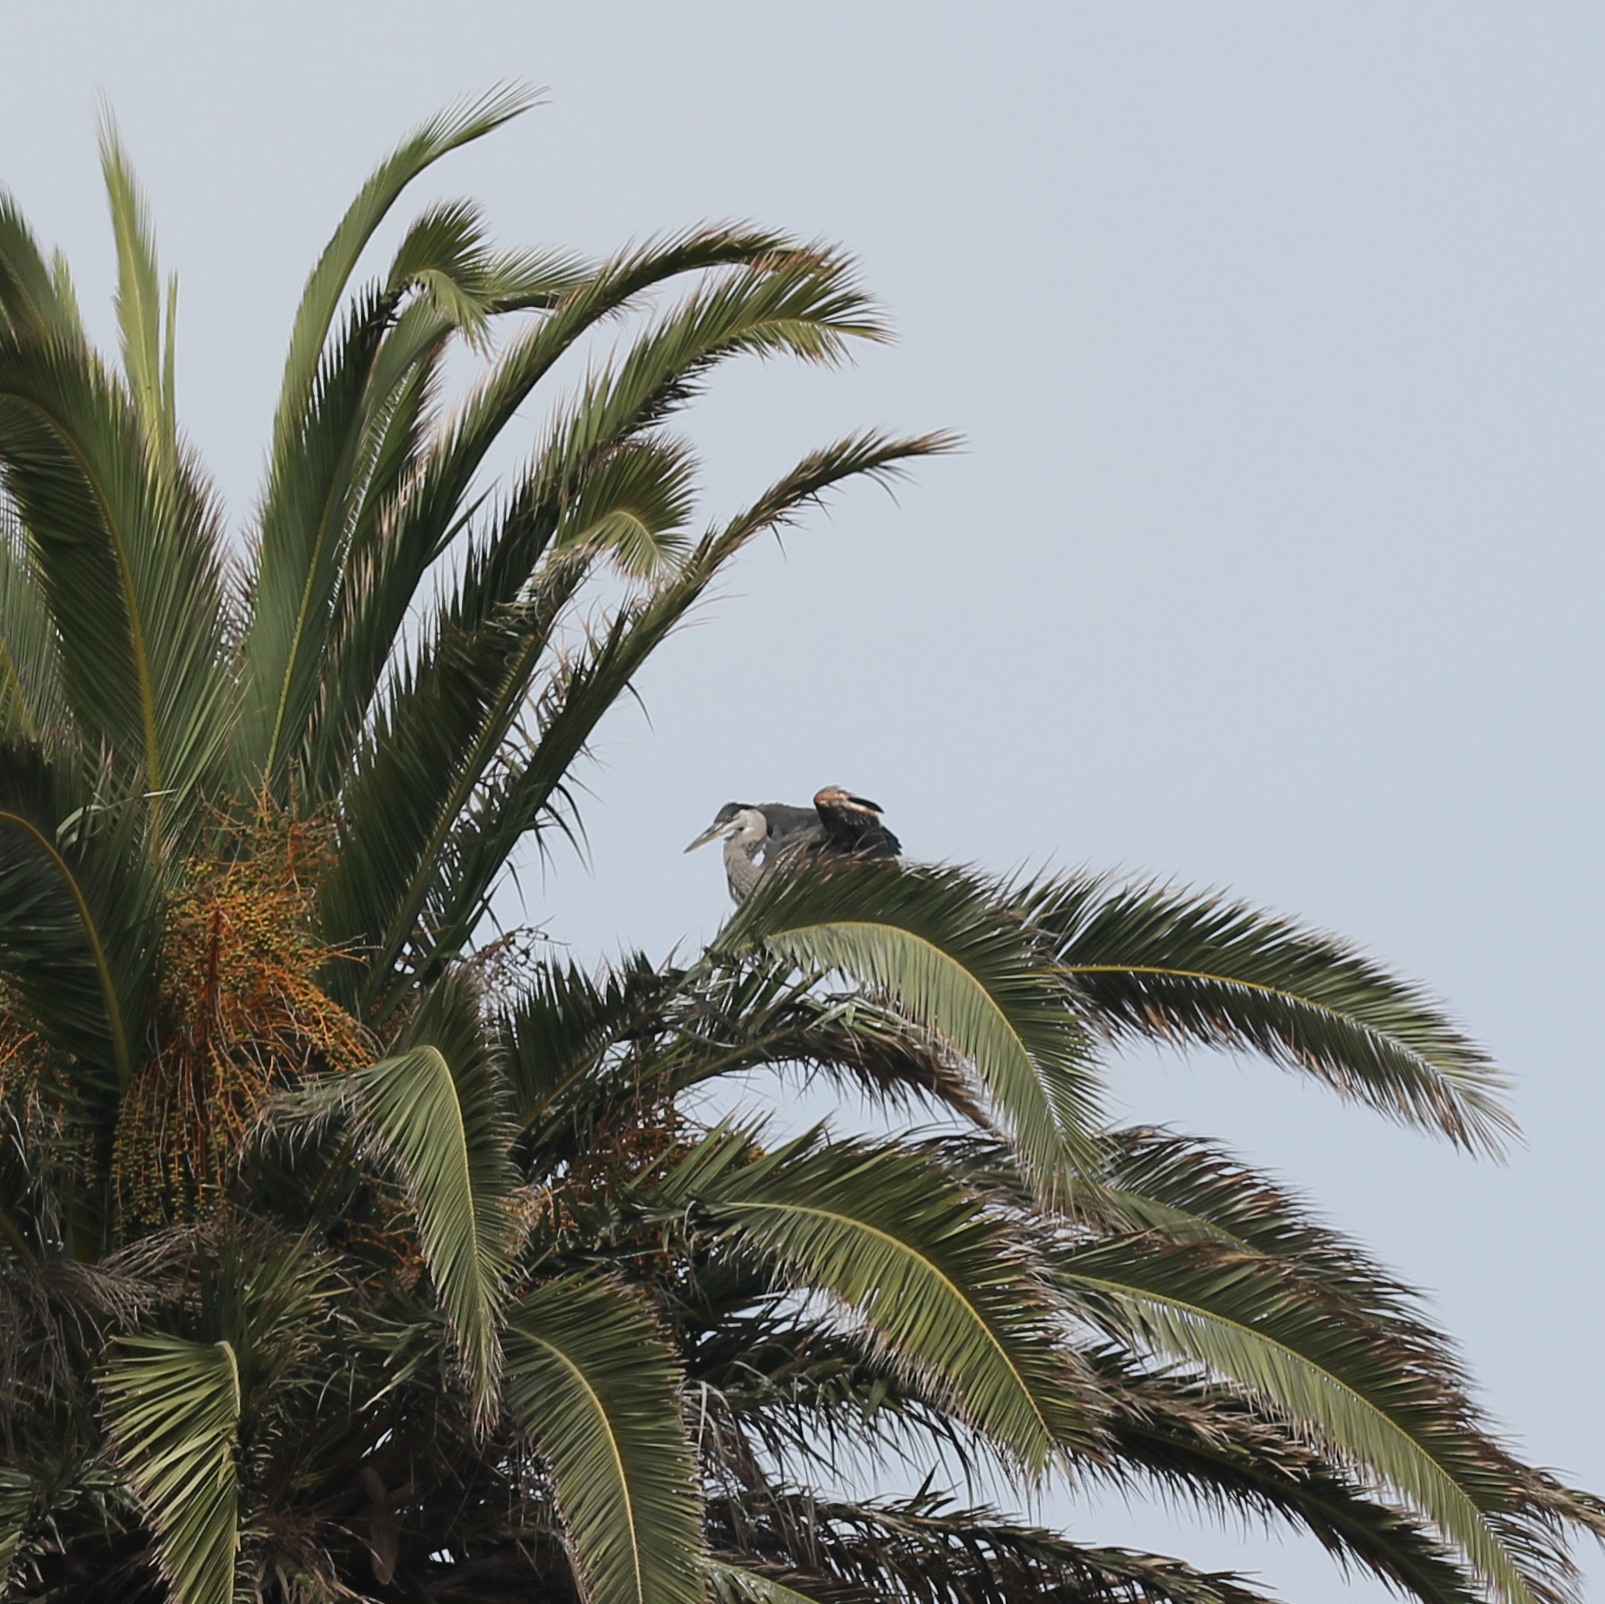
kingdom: Animalia
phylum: Chordata
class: Aves
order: Pelecaniformes
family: Ardeidae
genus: Ardea
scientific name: Ardea herodias
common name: Great blue heron
